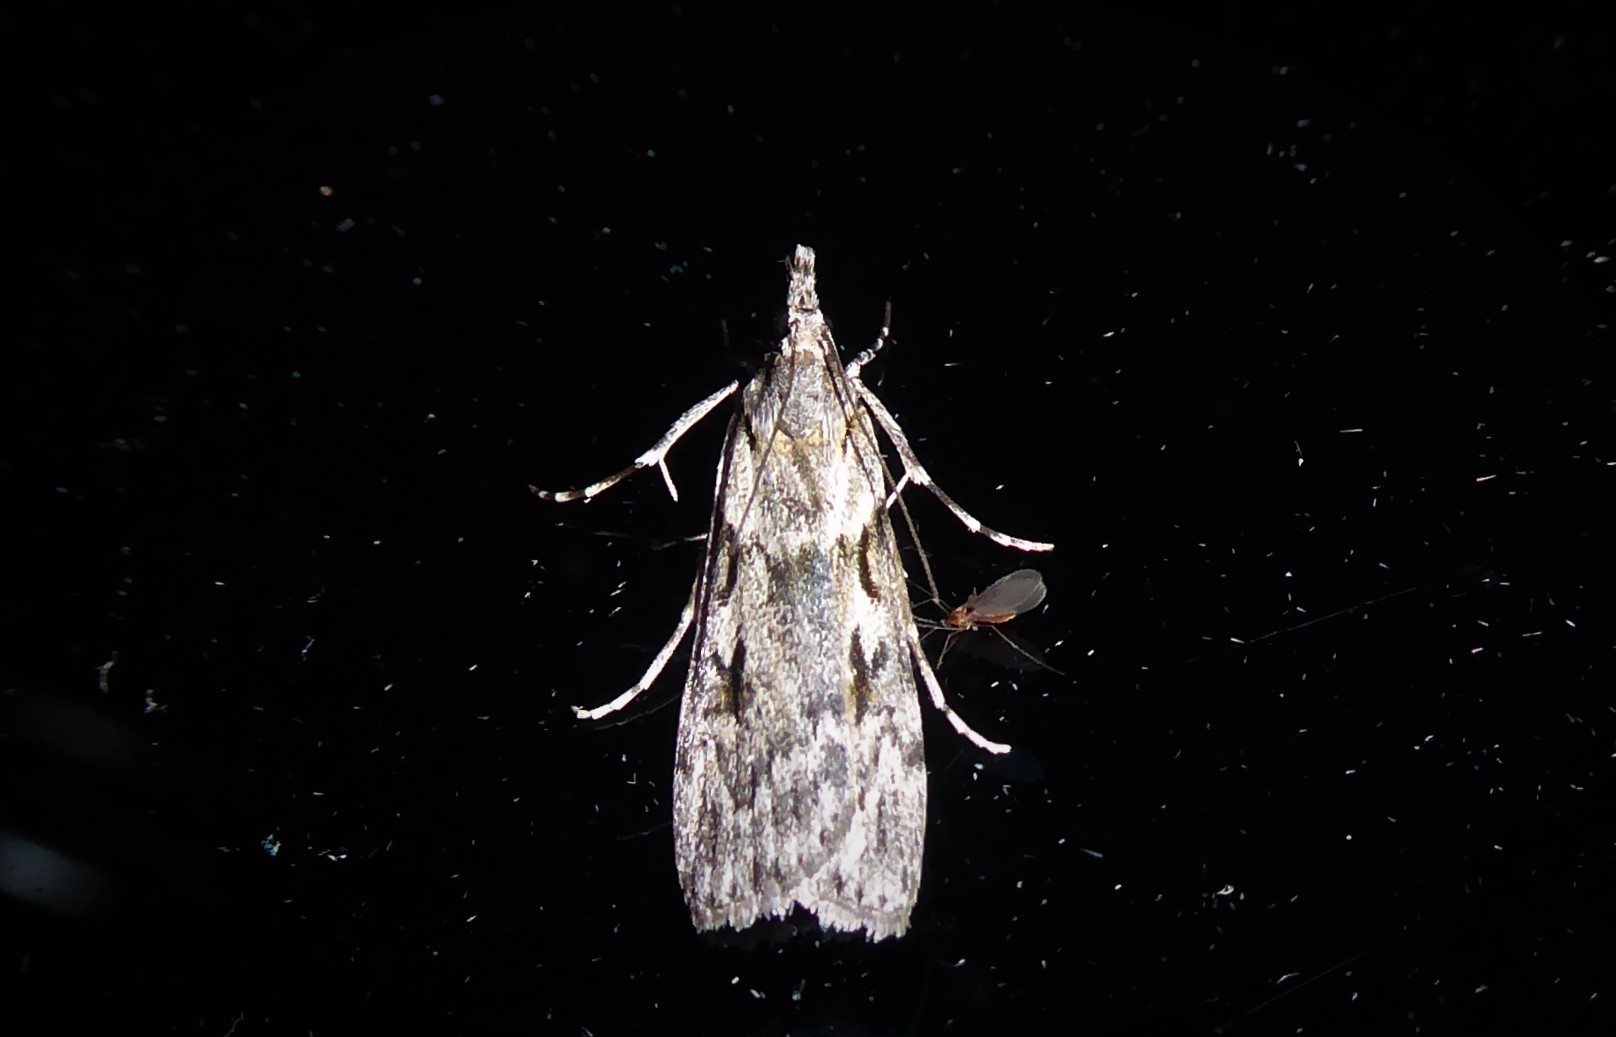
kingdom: Animalia
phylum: Arthropoda
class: Insecta
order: Lepidoptera
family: Crambidae
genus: Scoparia
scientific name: Scoparia halopis
